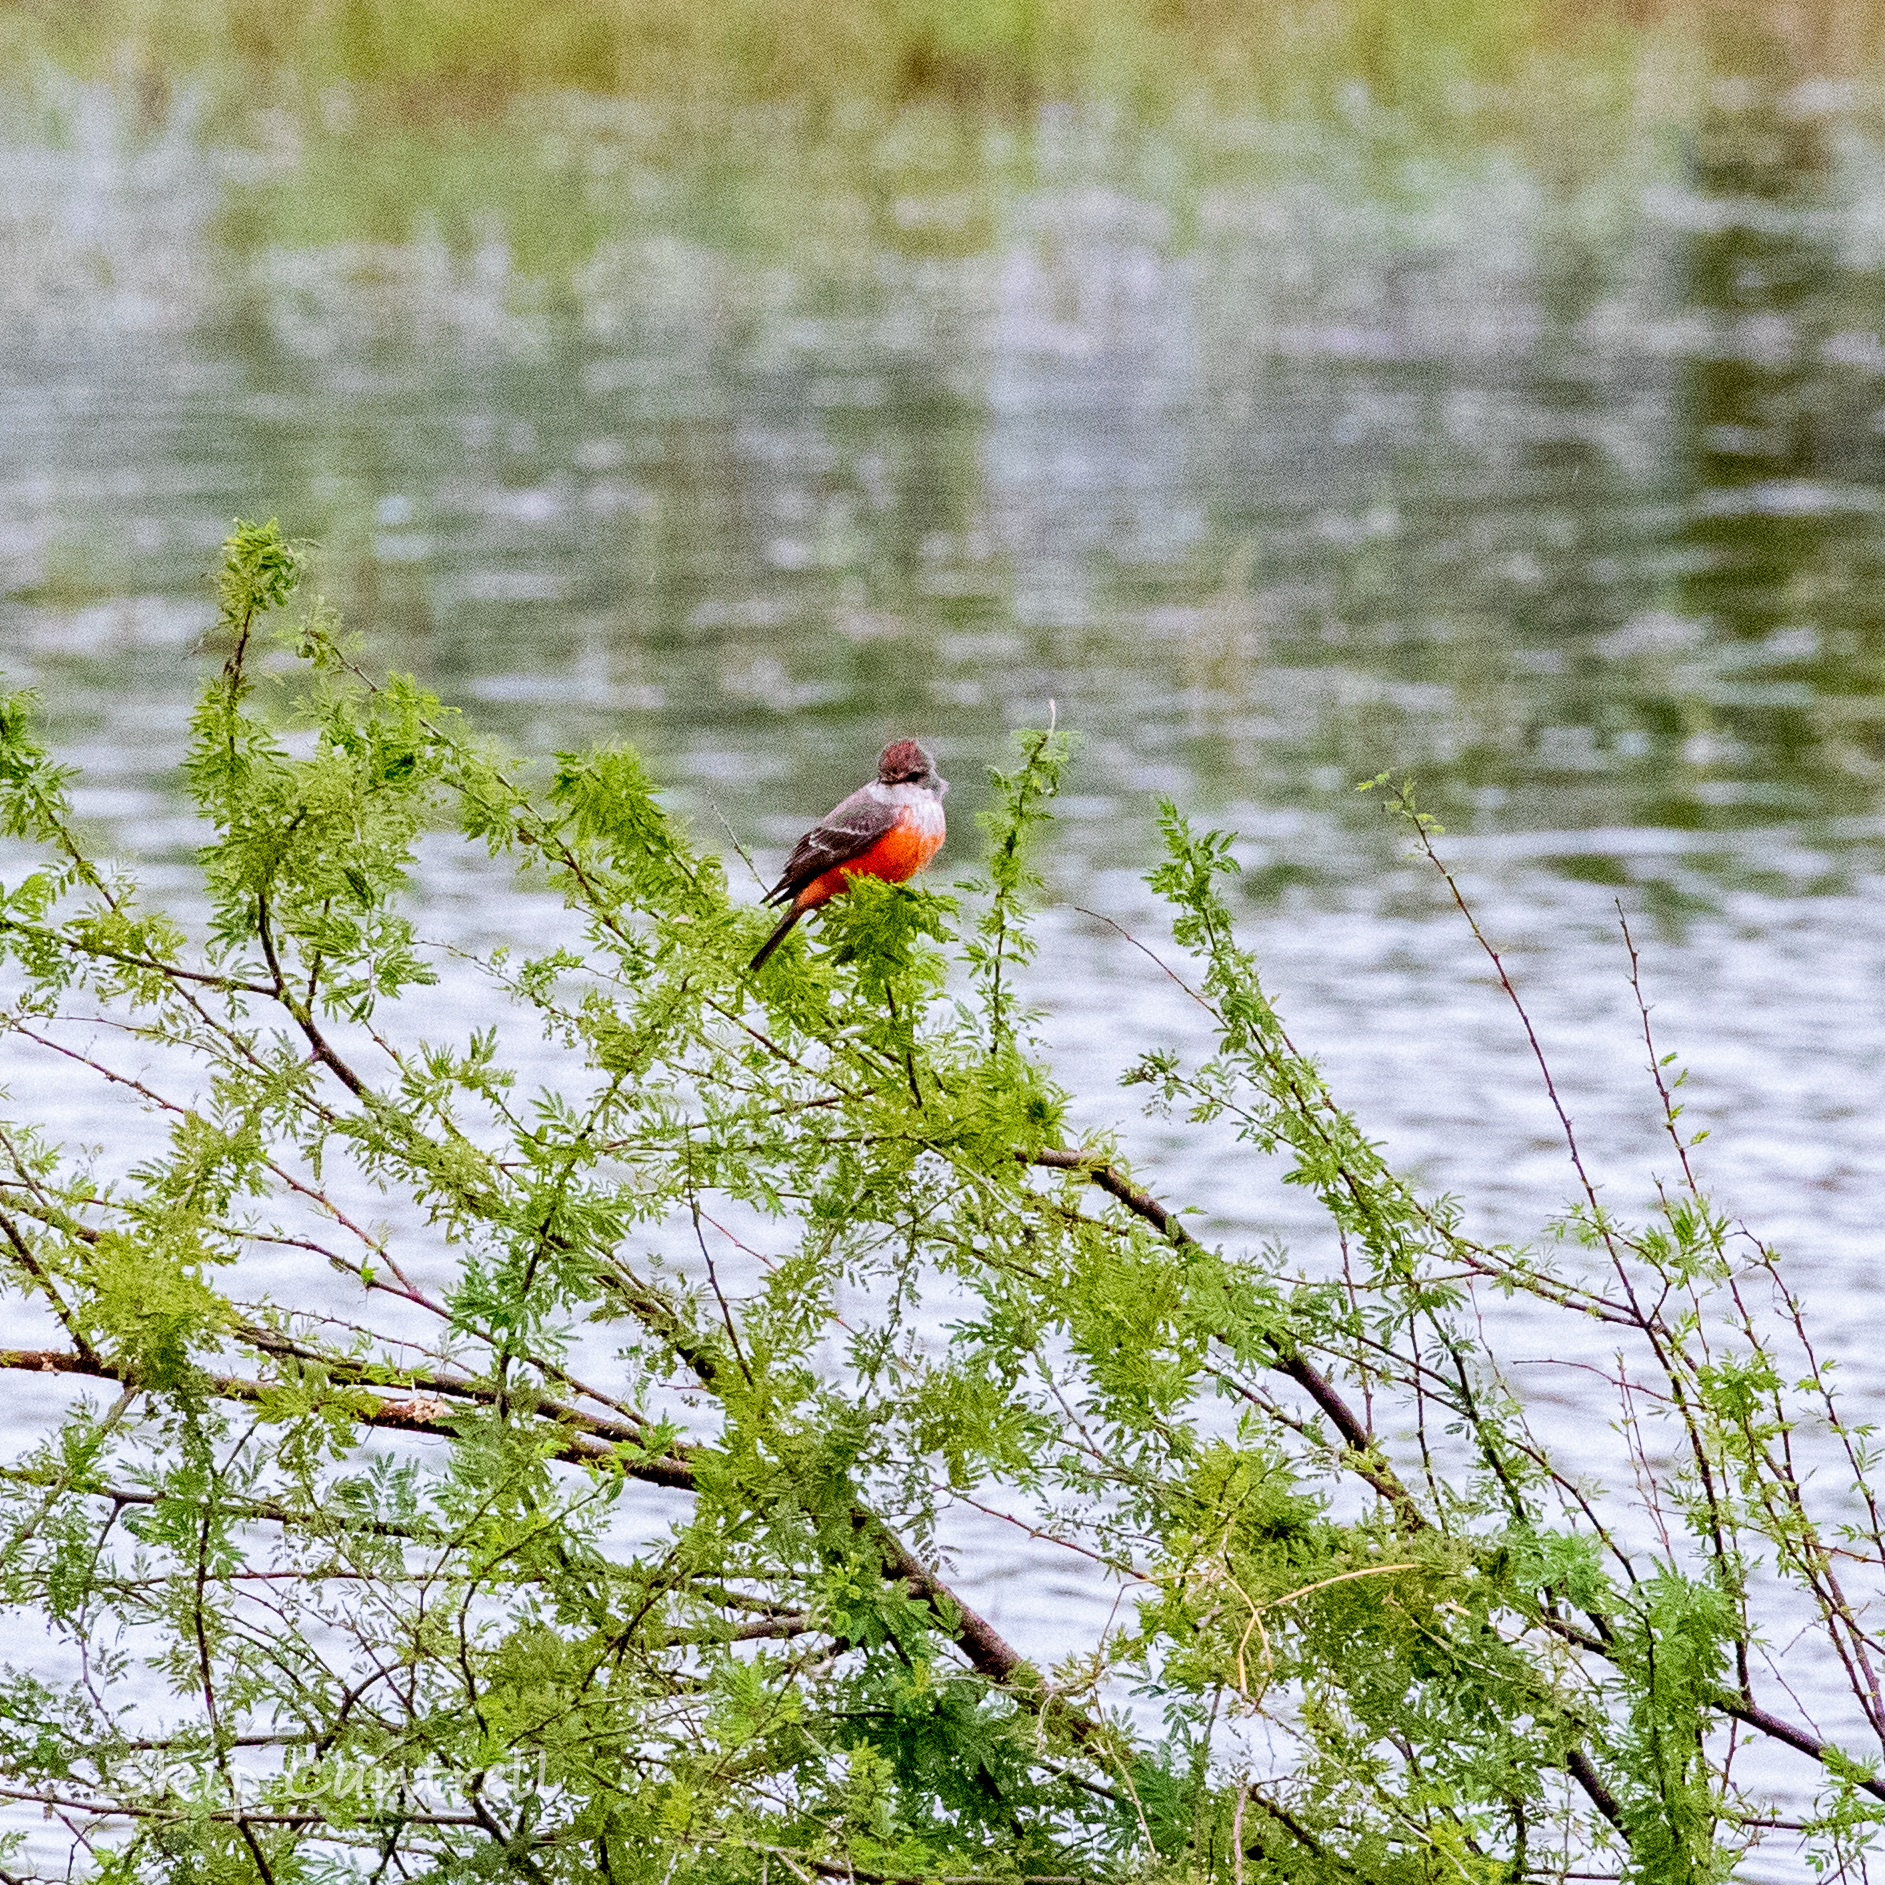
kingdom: Animalia
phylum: Chordata
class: Aves
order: Passeriformes
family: Tyrannidae
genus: Pyrocephalus
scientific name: Pyrocephalus rubinus
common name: Vermilion flycatcher
